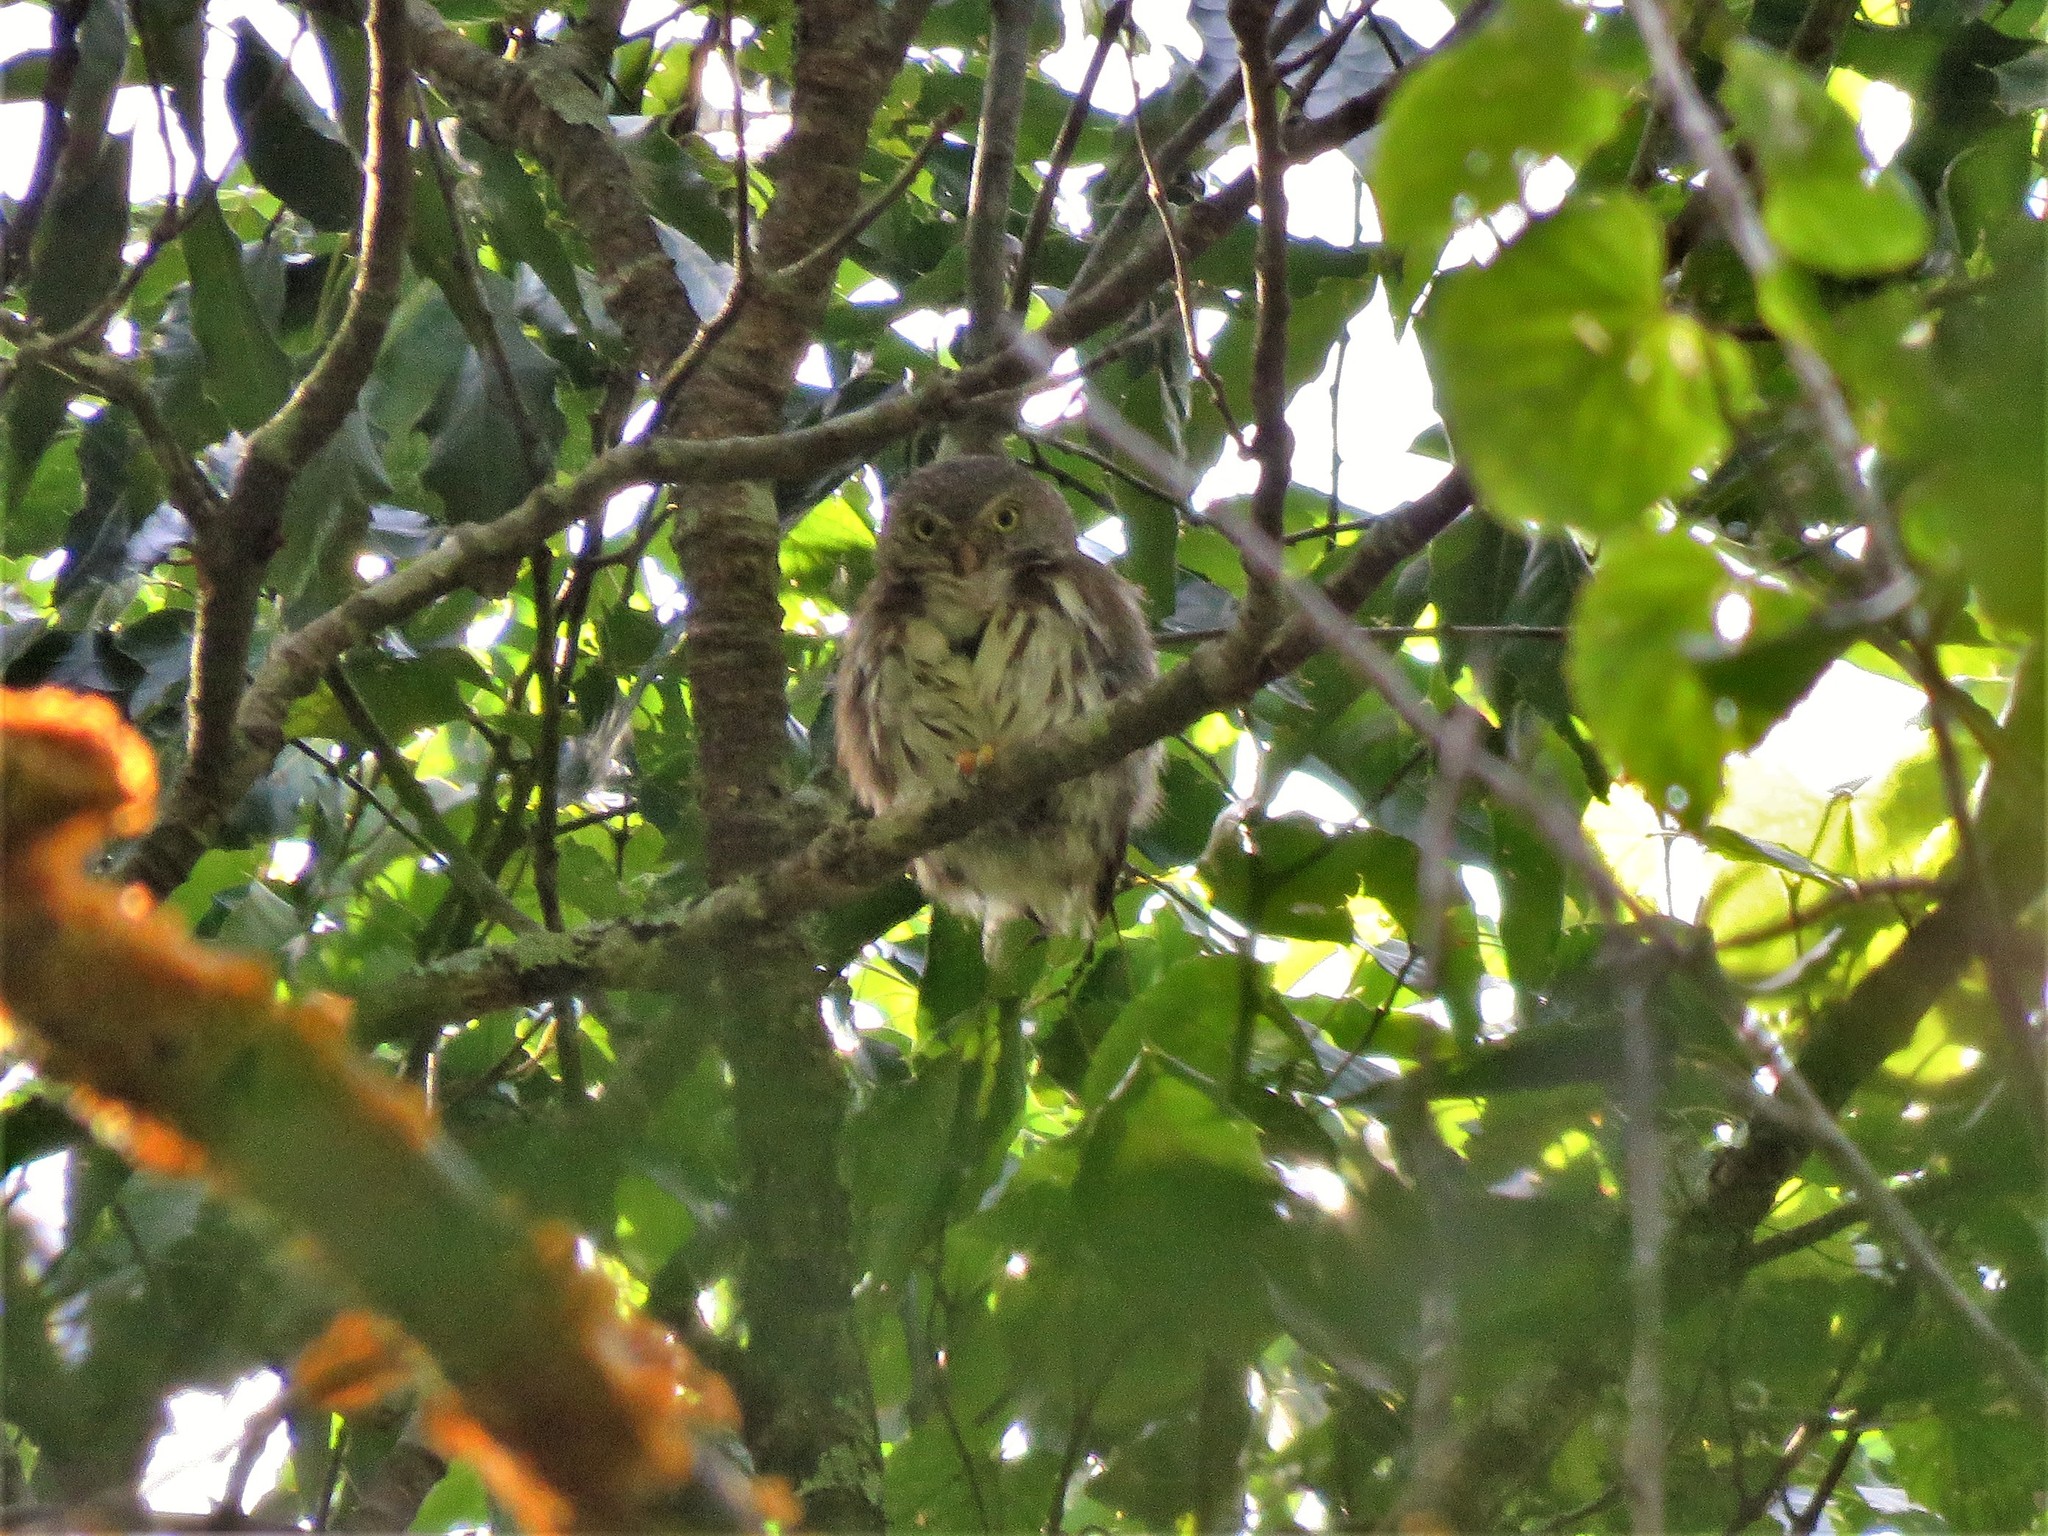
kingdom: Animalia
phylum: Chordata
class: Aves
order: Strigiformes
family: Strigidae
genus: Glaucidium
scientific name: Glaucidium sanchezi
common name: Tamaulipas pygmy-owl
